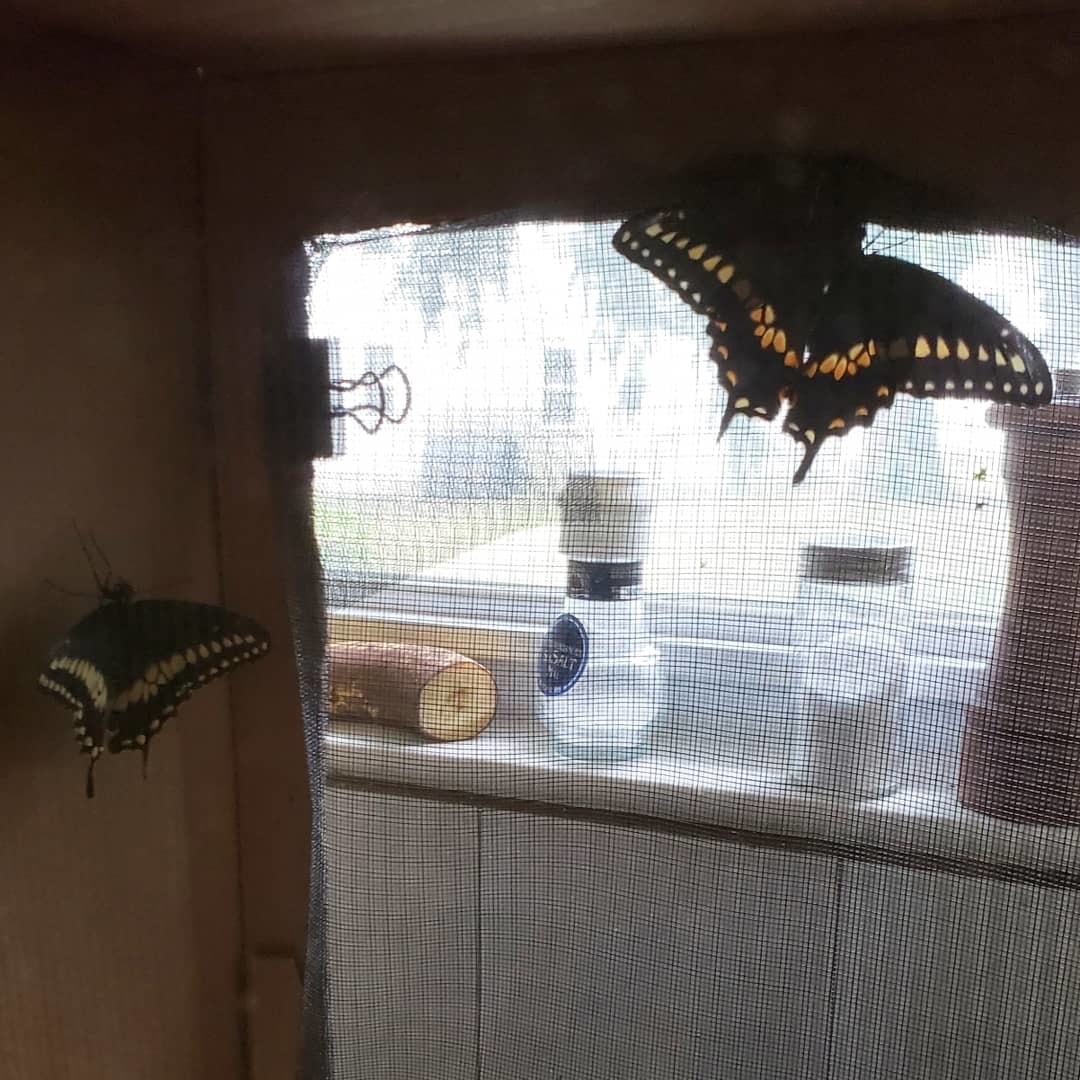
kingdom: Animalia
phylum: Arthropoda
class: Insecta
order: Lepidoptera
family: Papilionidae
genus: Papilio
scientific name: Papilio polyxenes
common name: Black swallowtail
